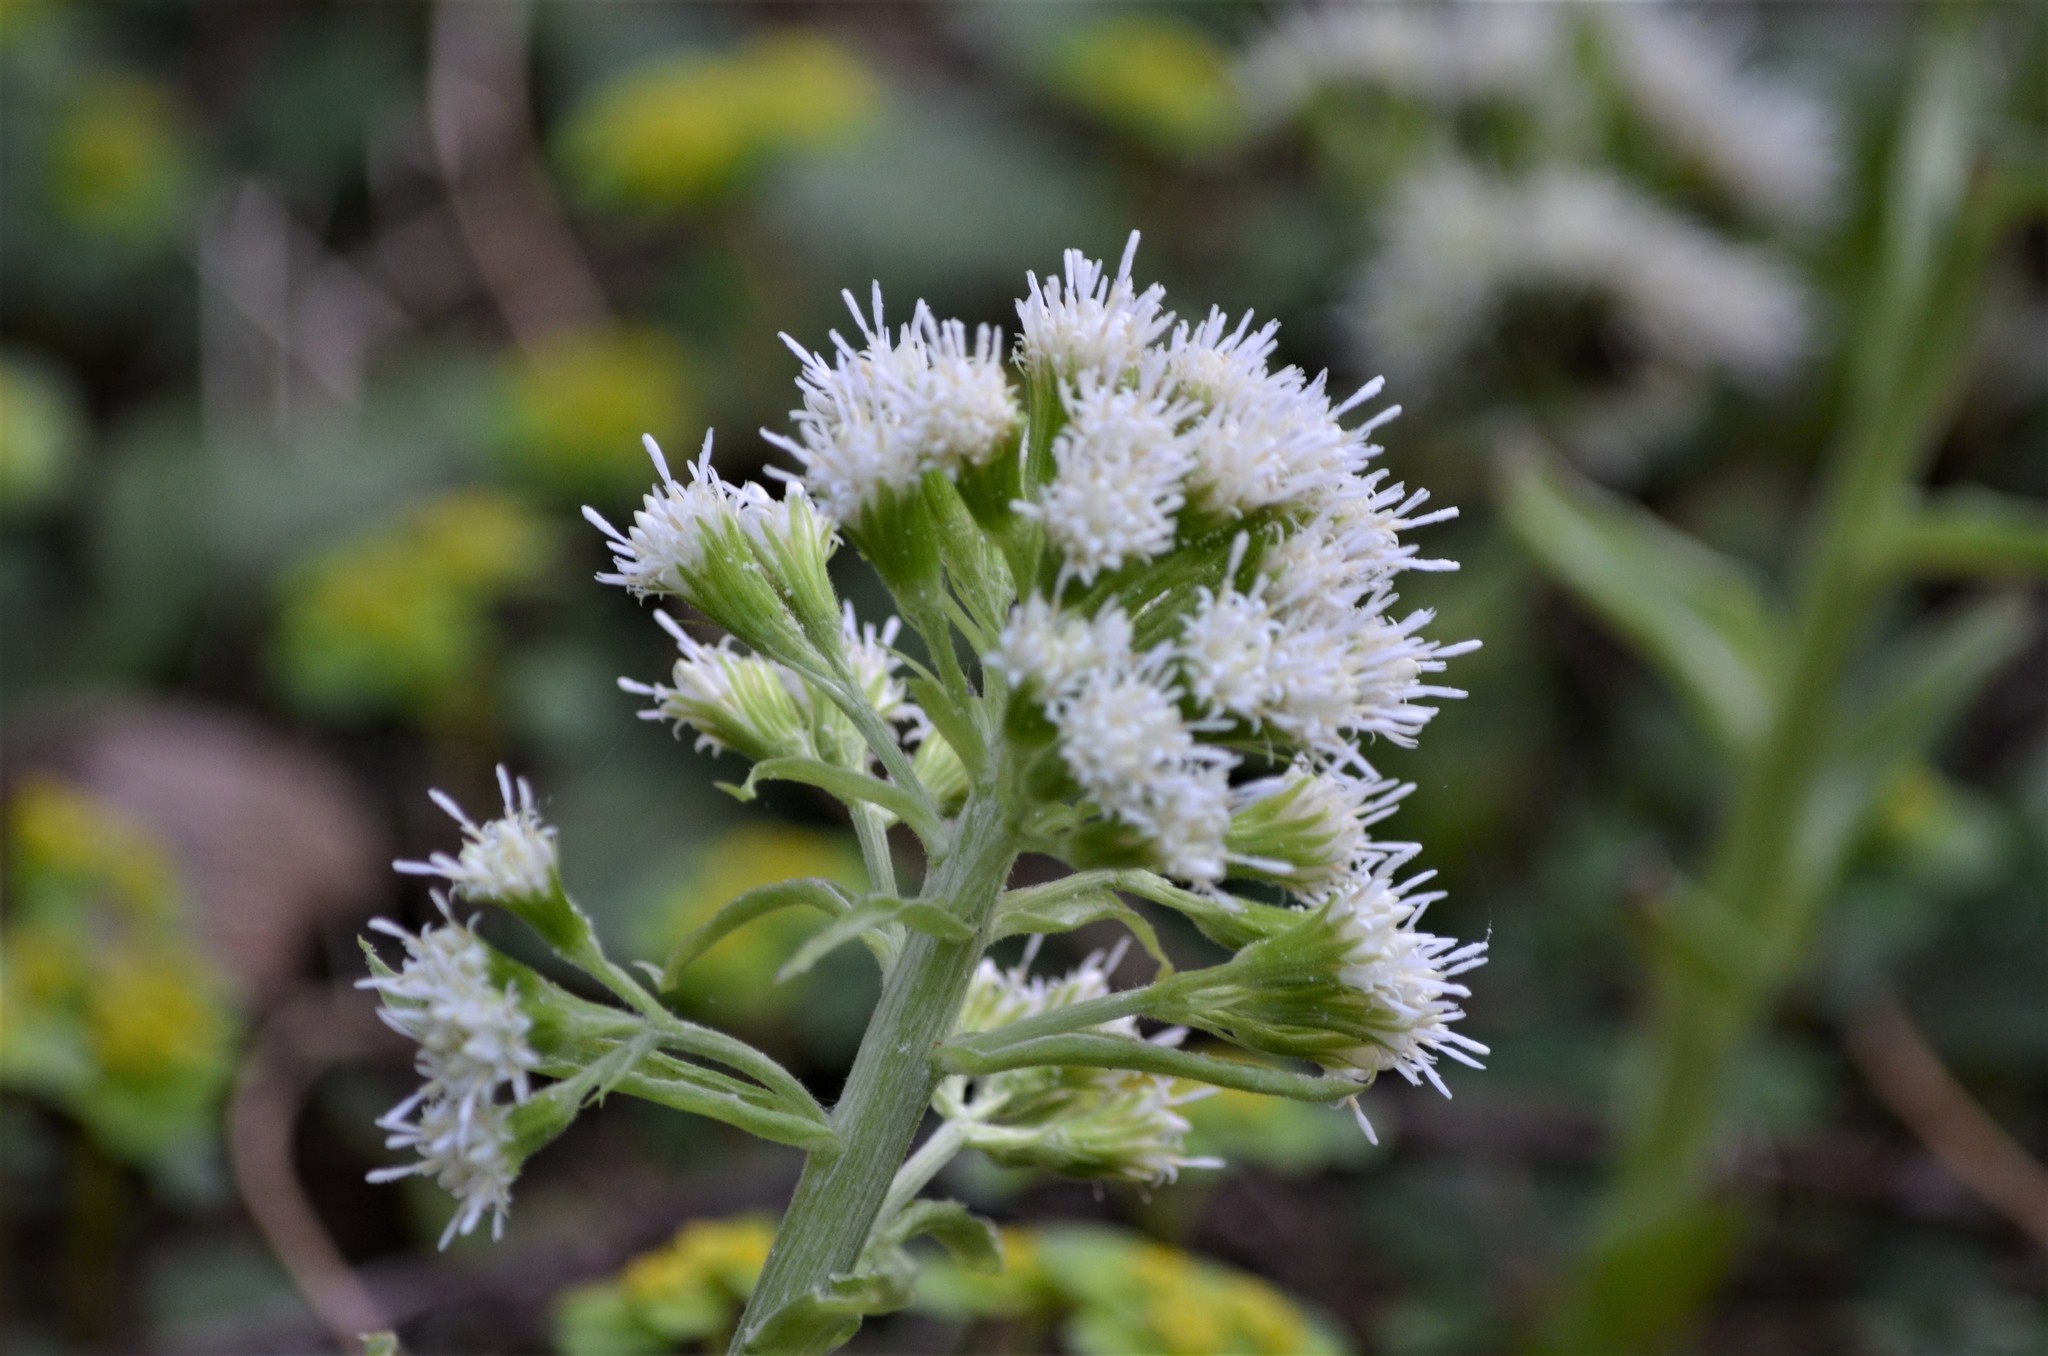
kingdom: Plantae
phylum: Tracheophyta
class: Magnoliopsida
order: Asterales
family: Asteraceae
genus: Petasites
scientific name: Petasites albus
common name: White butterbur
